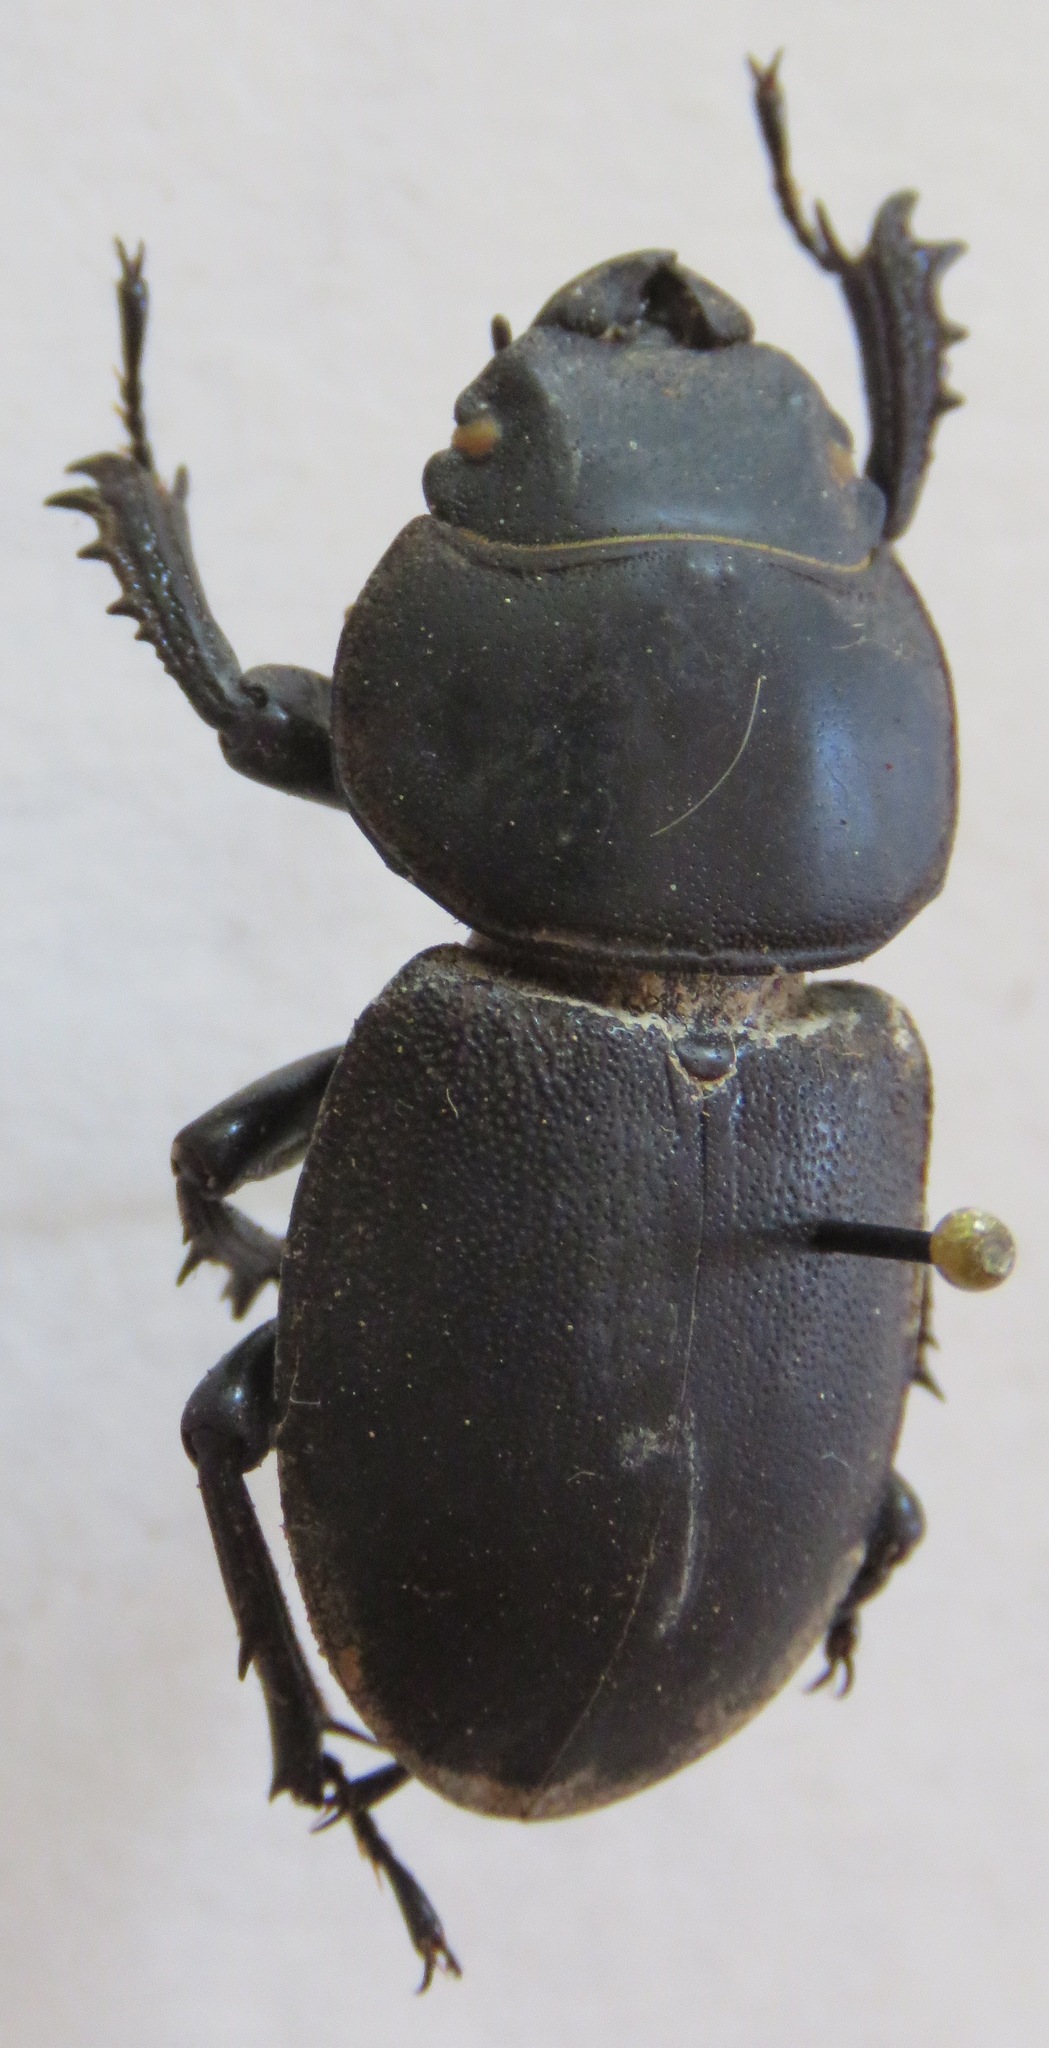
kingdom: Animalia
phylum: Arthropoda
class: Insecta
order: Coleoptera
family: Lucanidae
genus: Apterodorcus
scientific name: Apterodorcus bacchus
